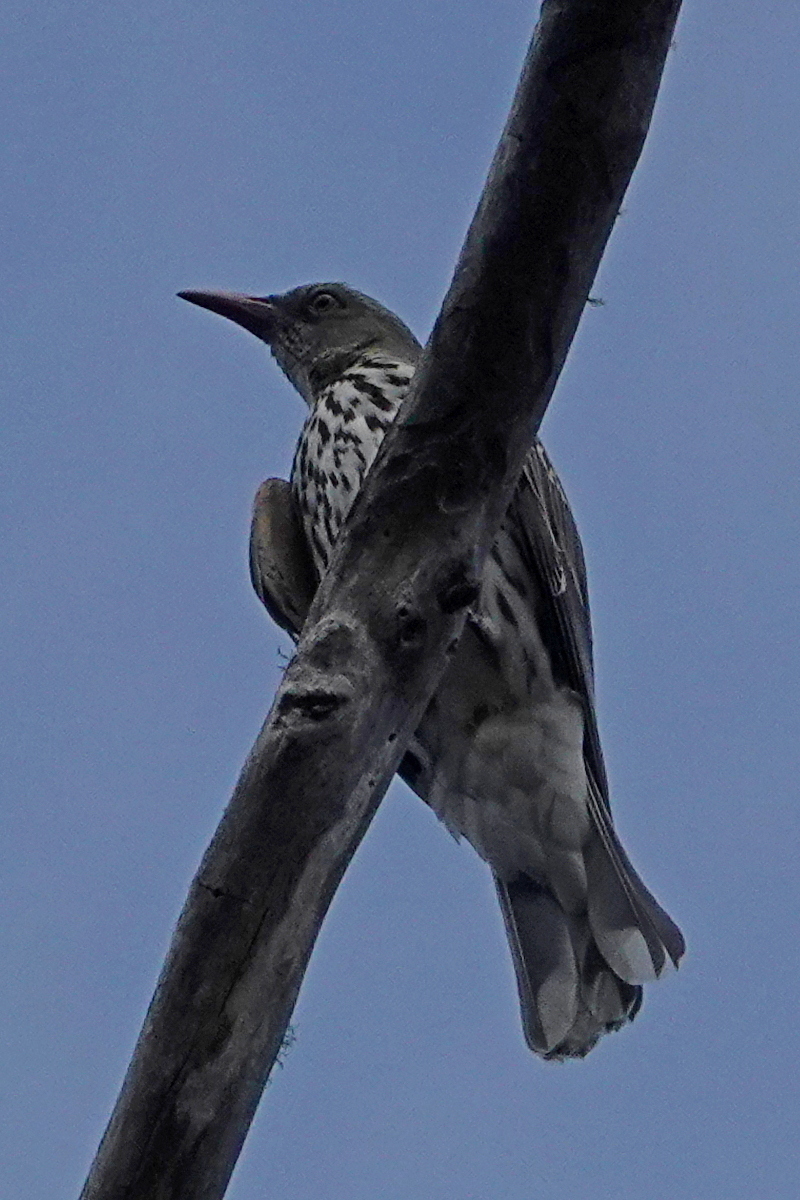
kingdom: Animalia
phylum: Chordata
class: Aves
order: Passeriformes
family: Oriolidae
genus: Oriolus
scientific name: Oriolus sagittatus
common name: Olive-backed oriole
